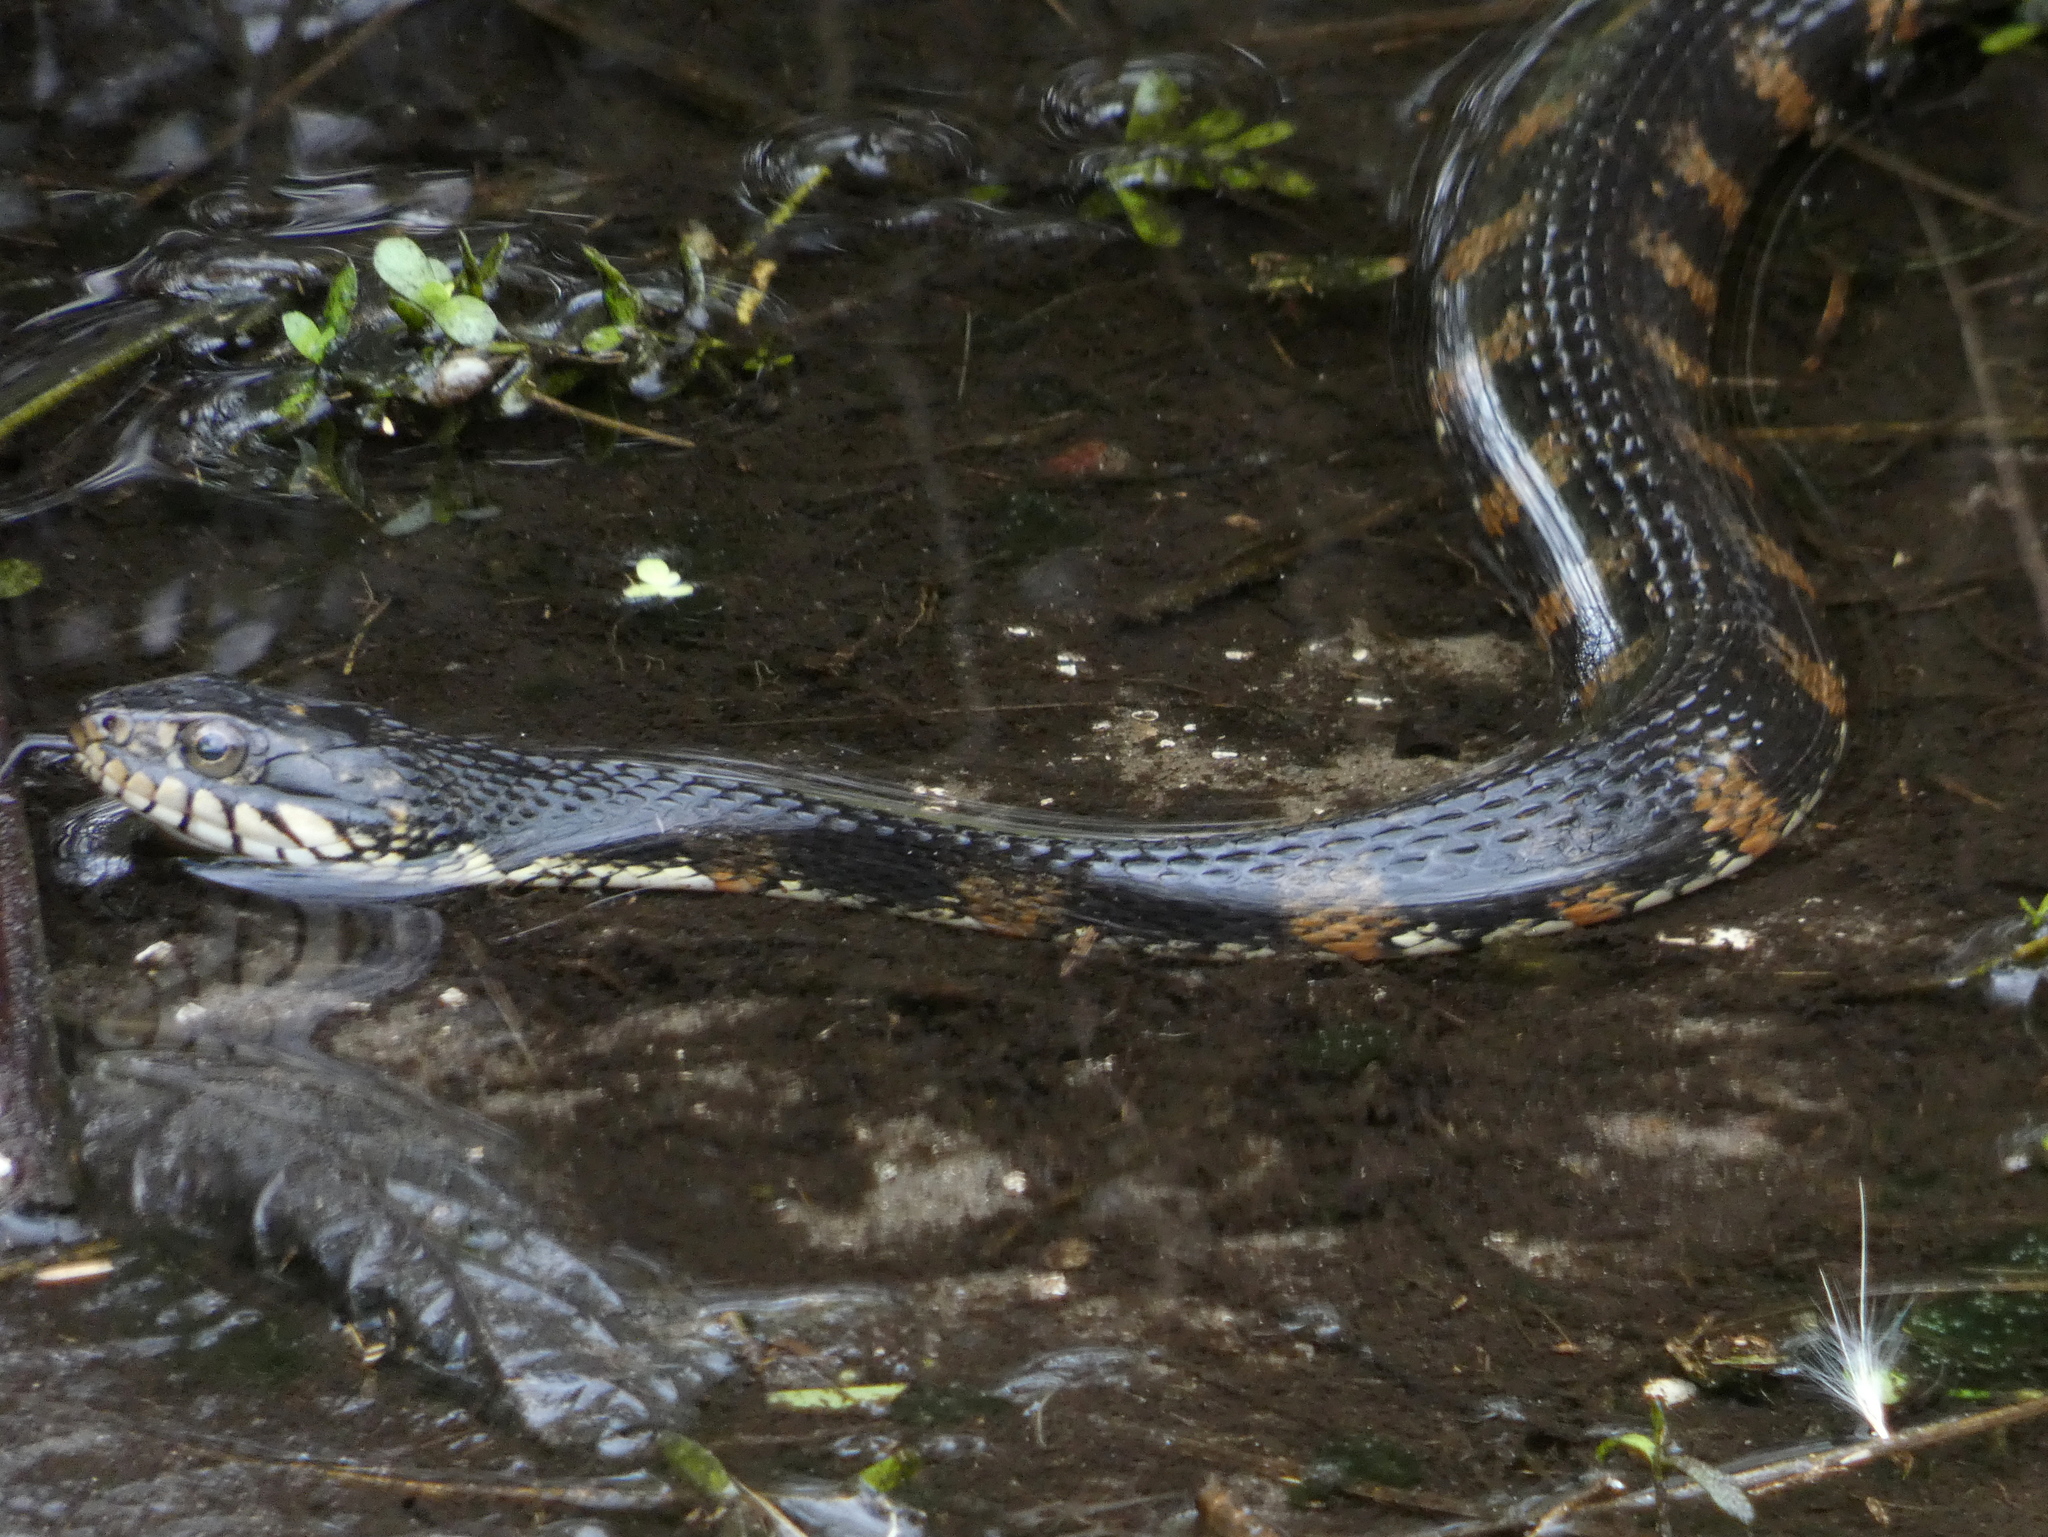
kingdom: Animalia
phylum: Chordata
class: Squamata
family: Colubridae
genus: Nerodia
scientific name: Nerodia fasciata
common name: Southern water snake
